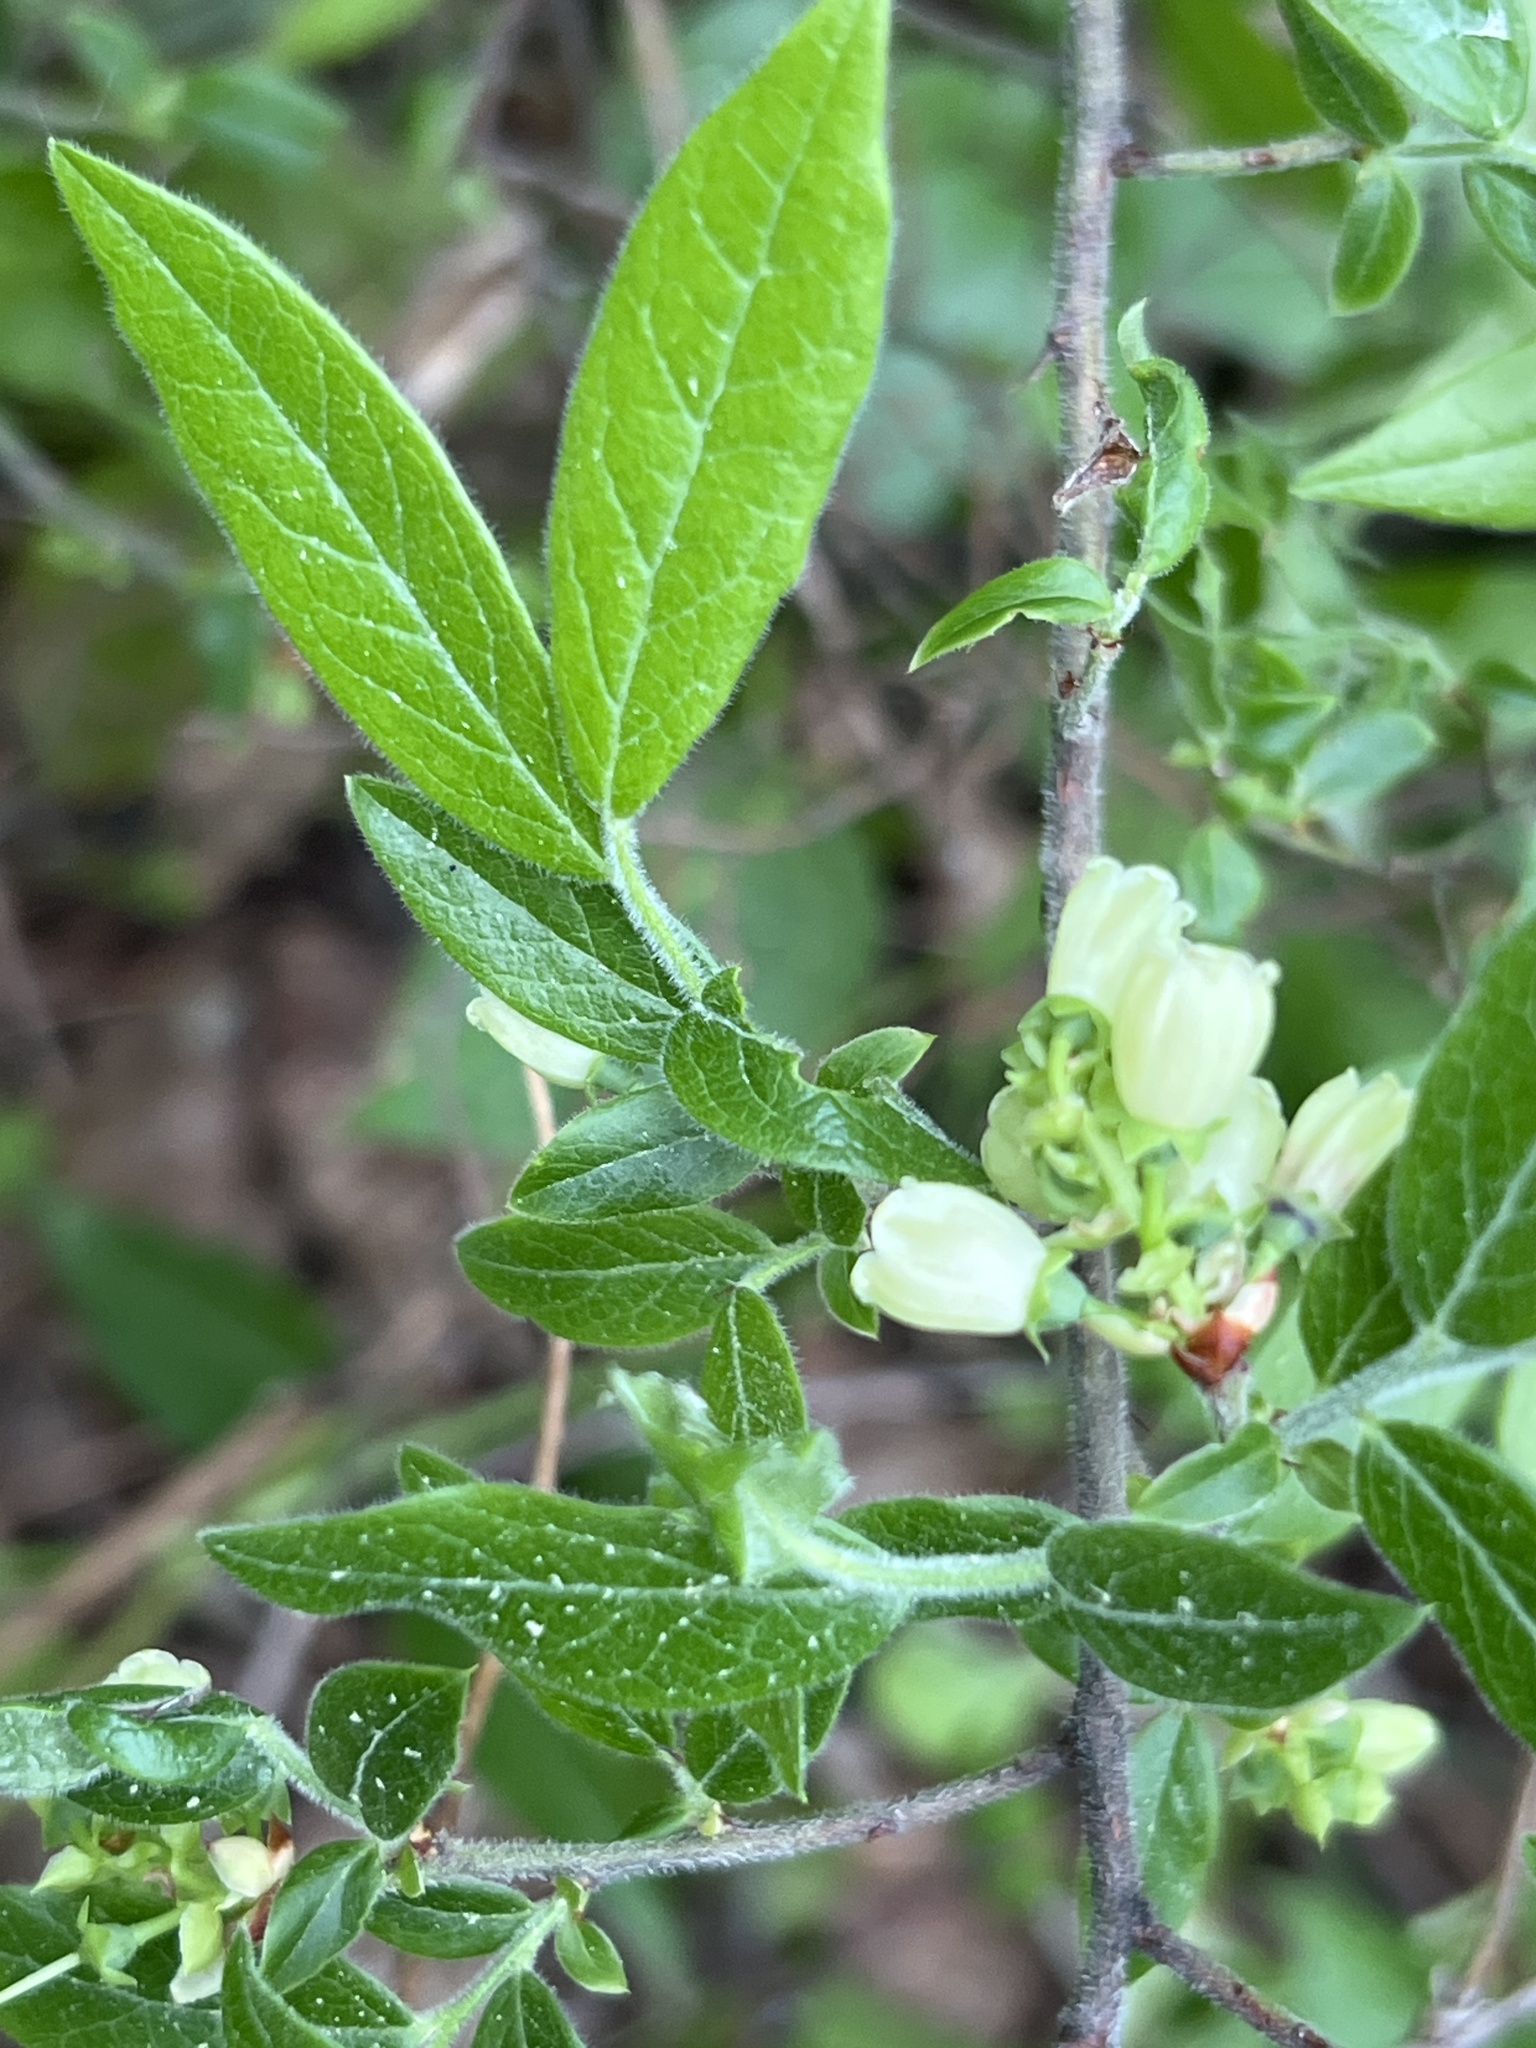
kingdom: Plantae
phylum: Tracheophyta
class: Magnoliopsida
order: Ericales
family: Ericaceae
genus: Vaccinium
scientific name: Vaccinium myrtilloides
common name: Canada blueberry
